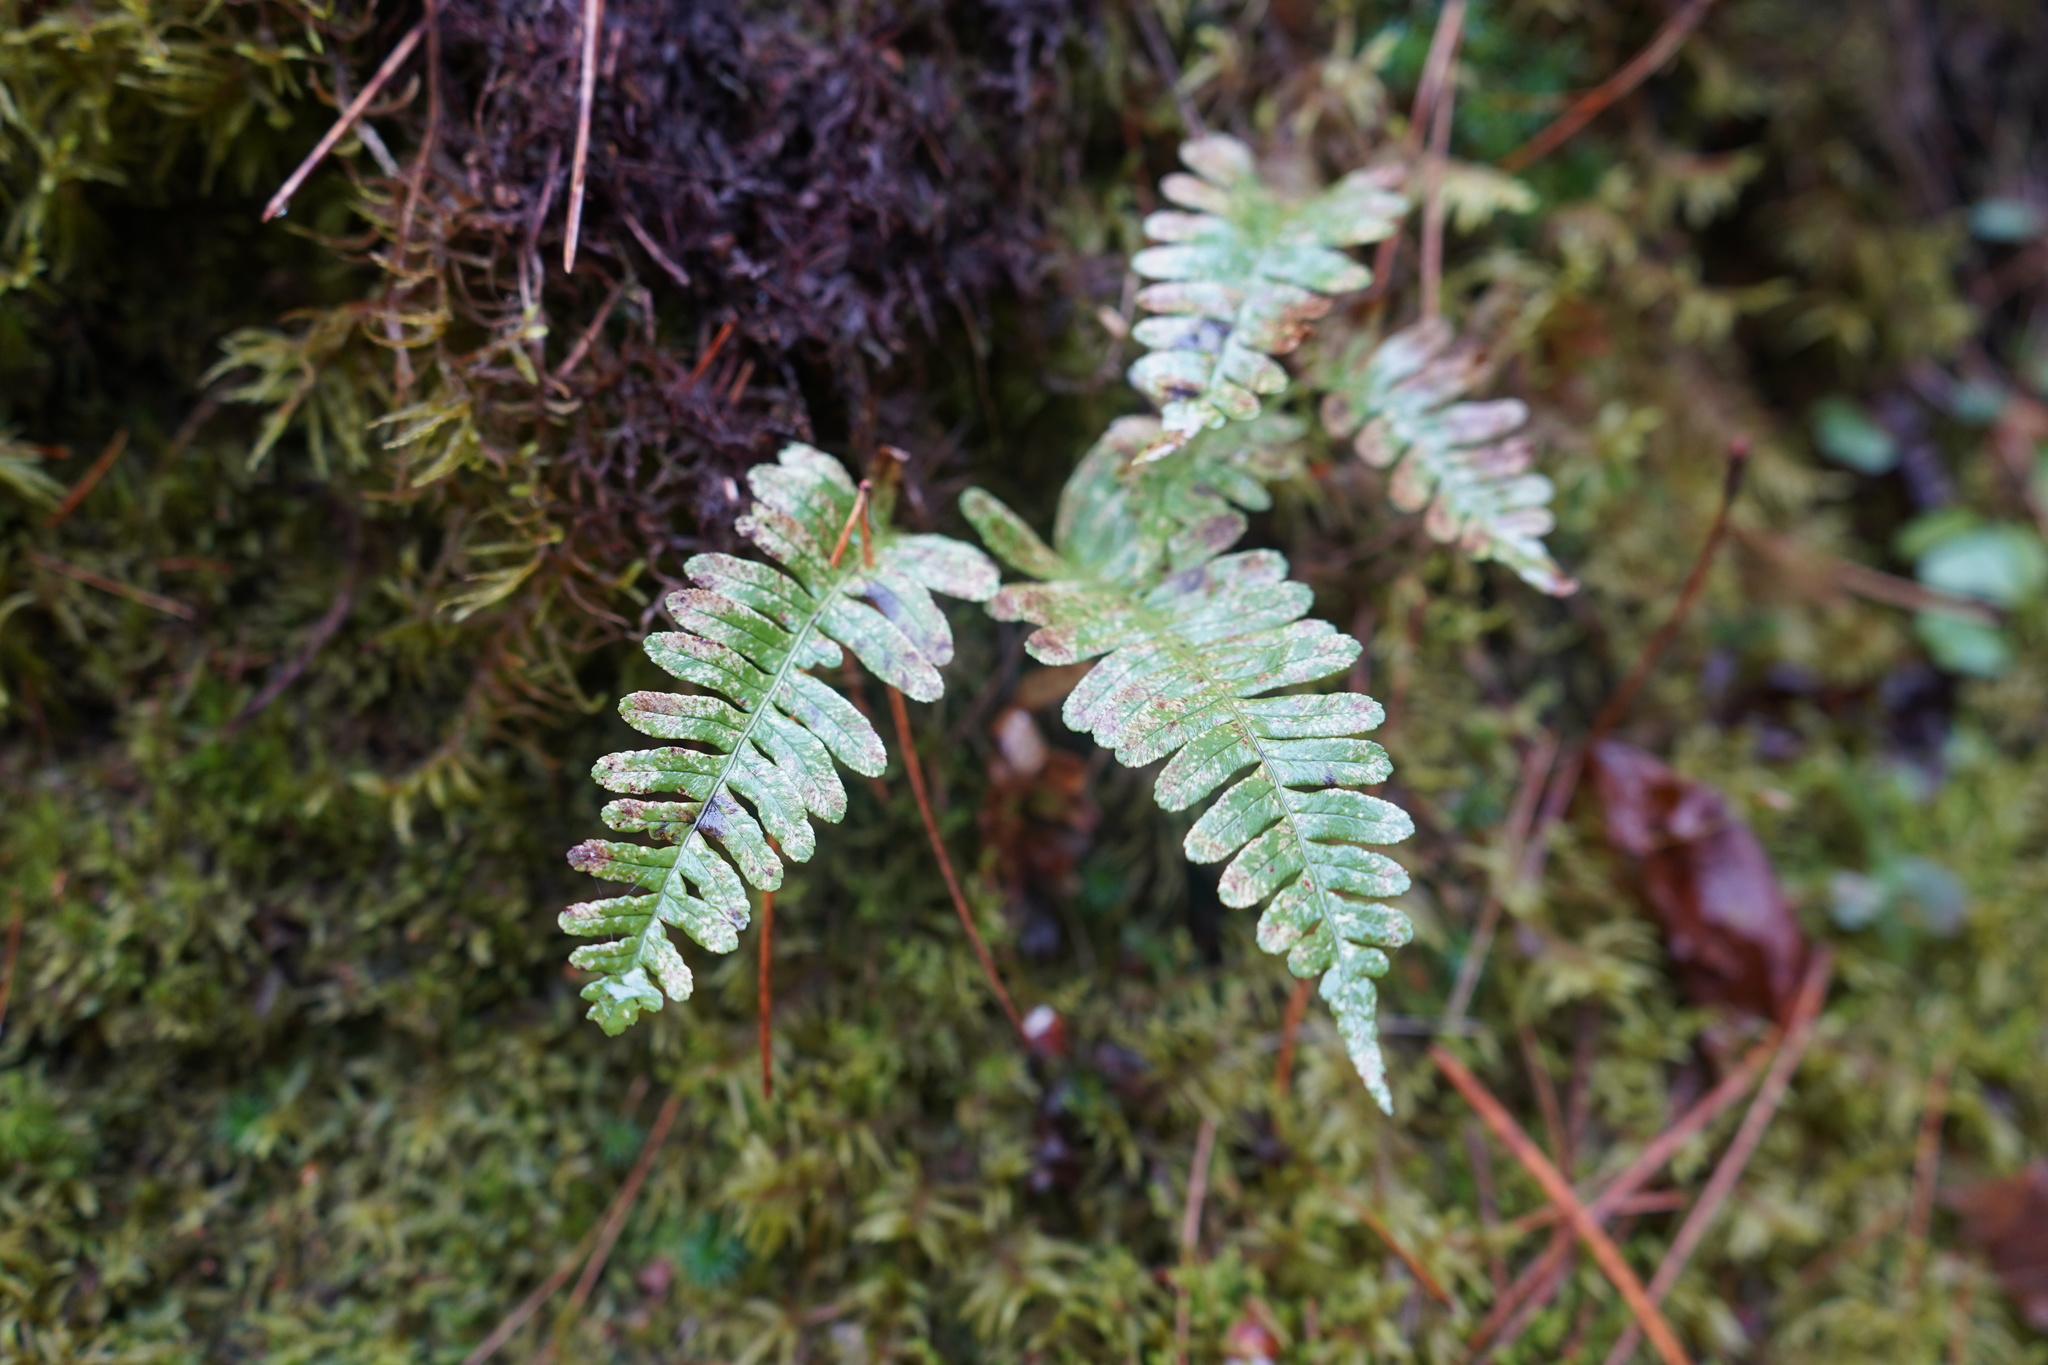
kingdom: Plantae
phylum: Tracheophyta
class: Polypodiopsida
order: Polypodiales
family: Polypodiaceae
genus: Polypodium
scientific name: Polypodium virginianum
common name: American wall fern
